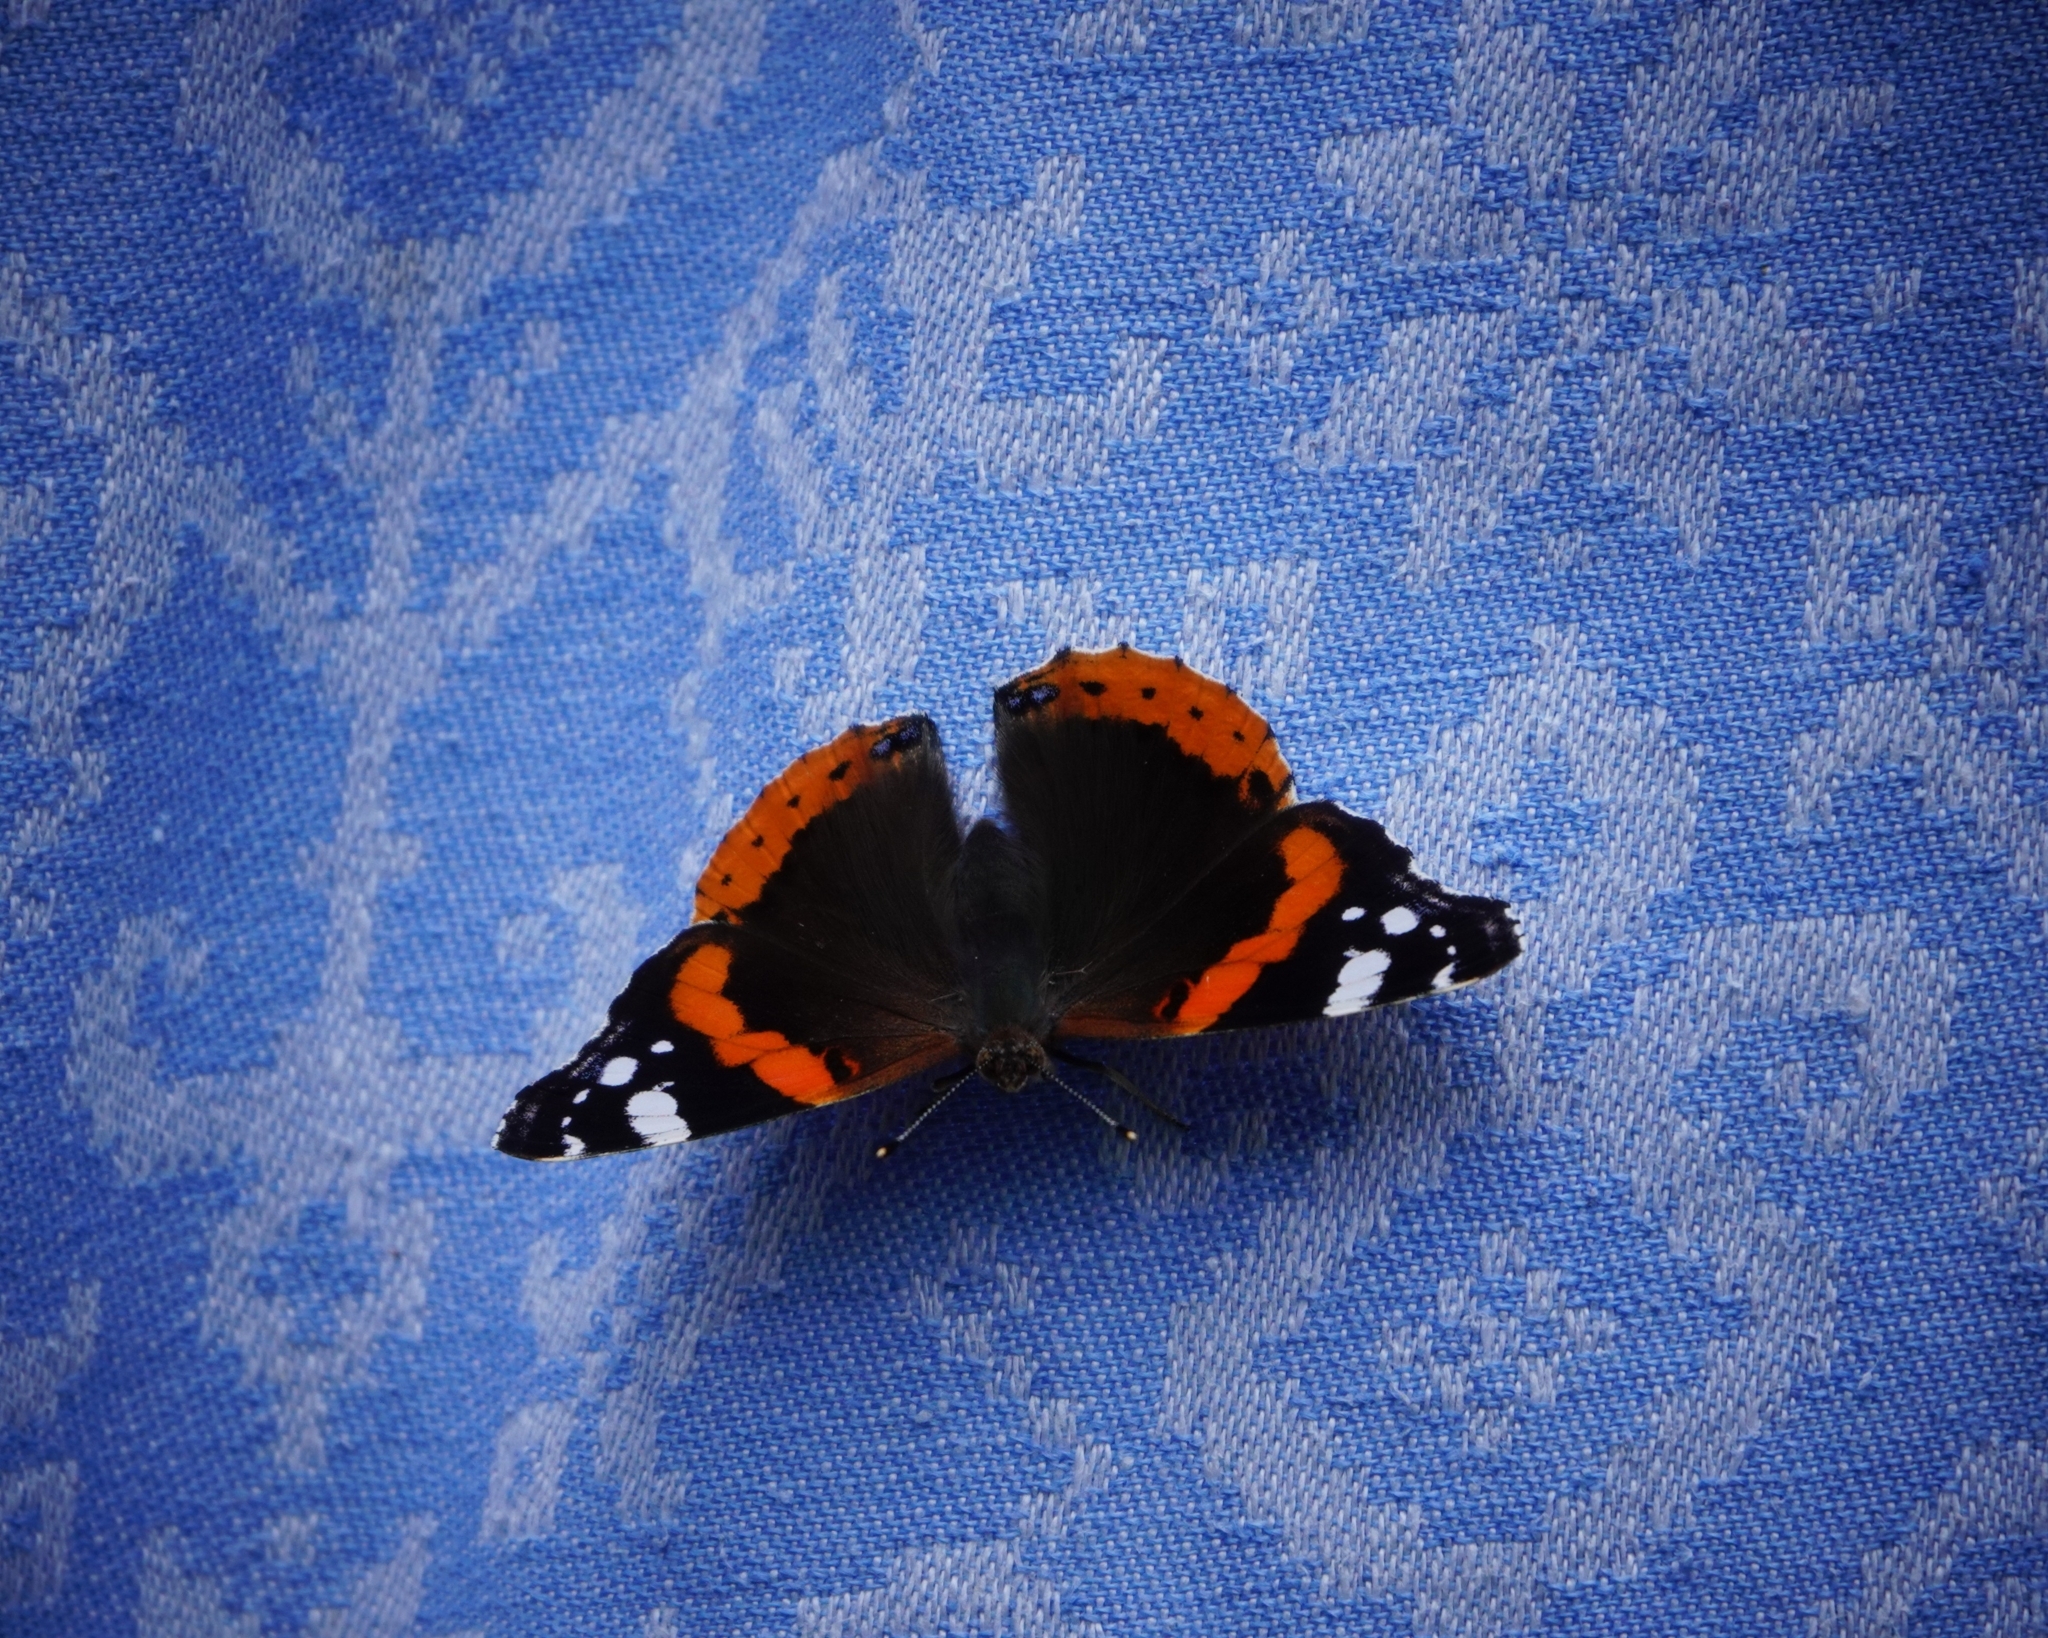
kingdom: Animalia
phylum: Arthropoda
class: Insecta
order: Lepidoptera
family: Nymphalidae
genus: Vanessa
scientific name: Vanessa atalanta
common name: Red admiral
